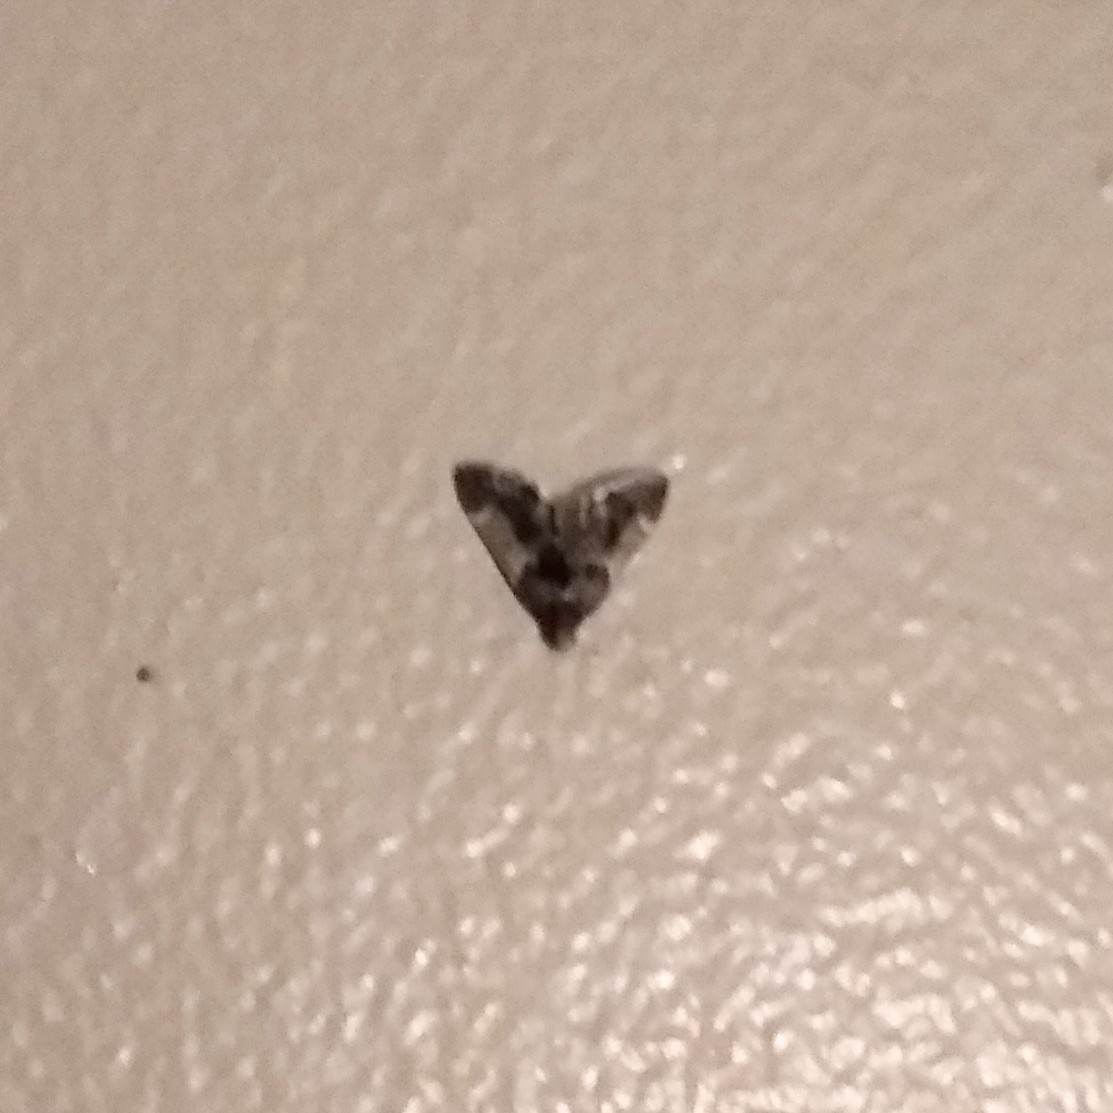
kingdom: Animalia
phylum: Arthropoda
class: Insecta
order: Lepidoptera
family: Pyralidae
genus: Pyralis
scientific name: Pyralis farinalis
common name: Meal moth
